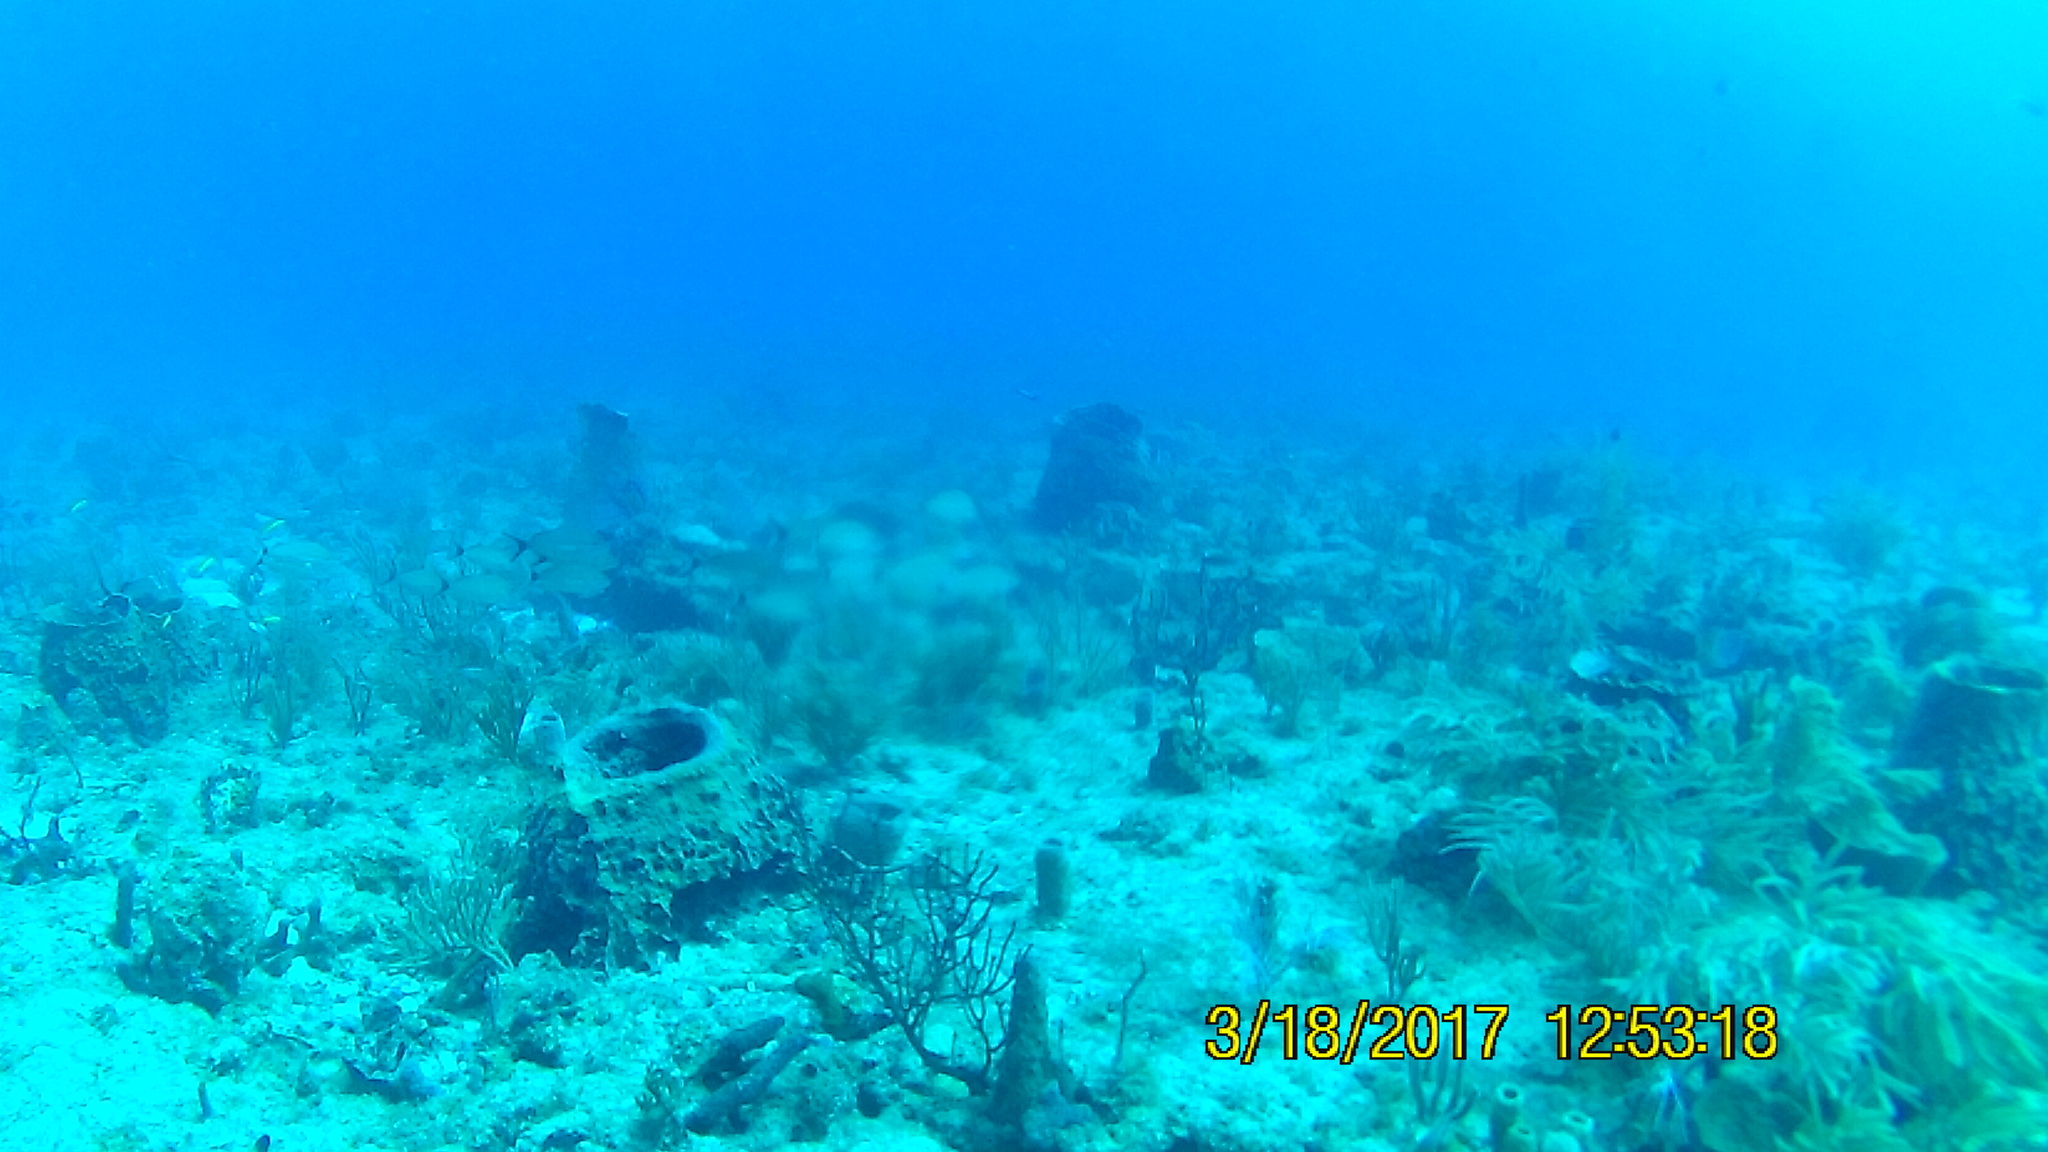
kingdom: Animalia
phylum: Chordata
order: Perciformes
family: Haemulidae
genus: Haemulon
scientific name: Haemulon aurolineatum
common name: Tomtate
